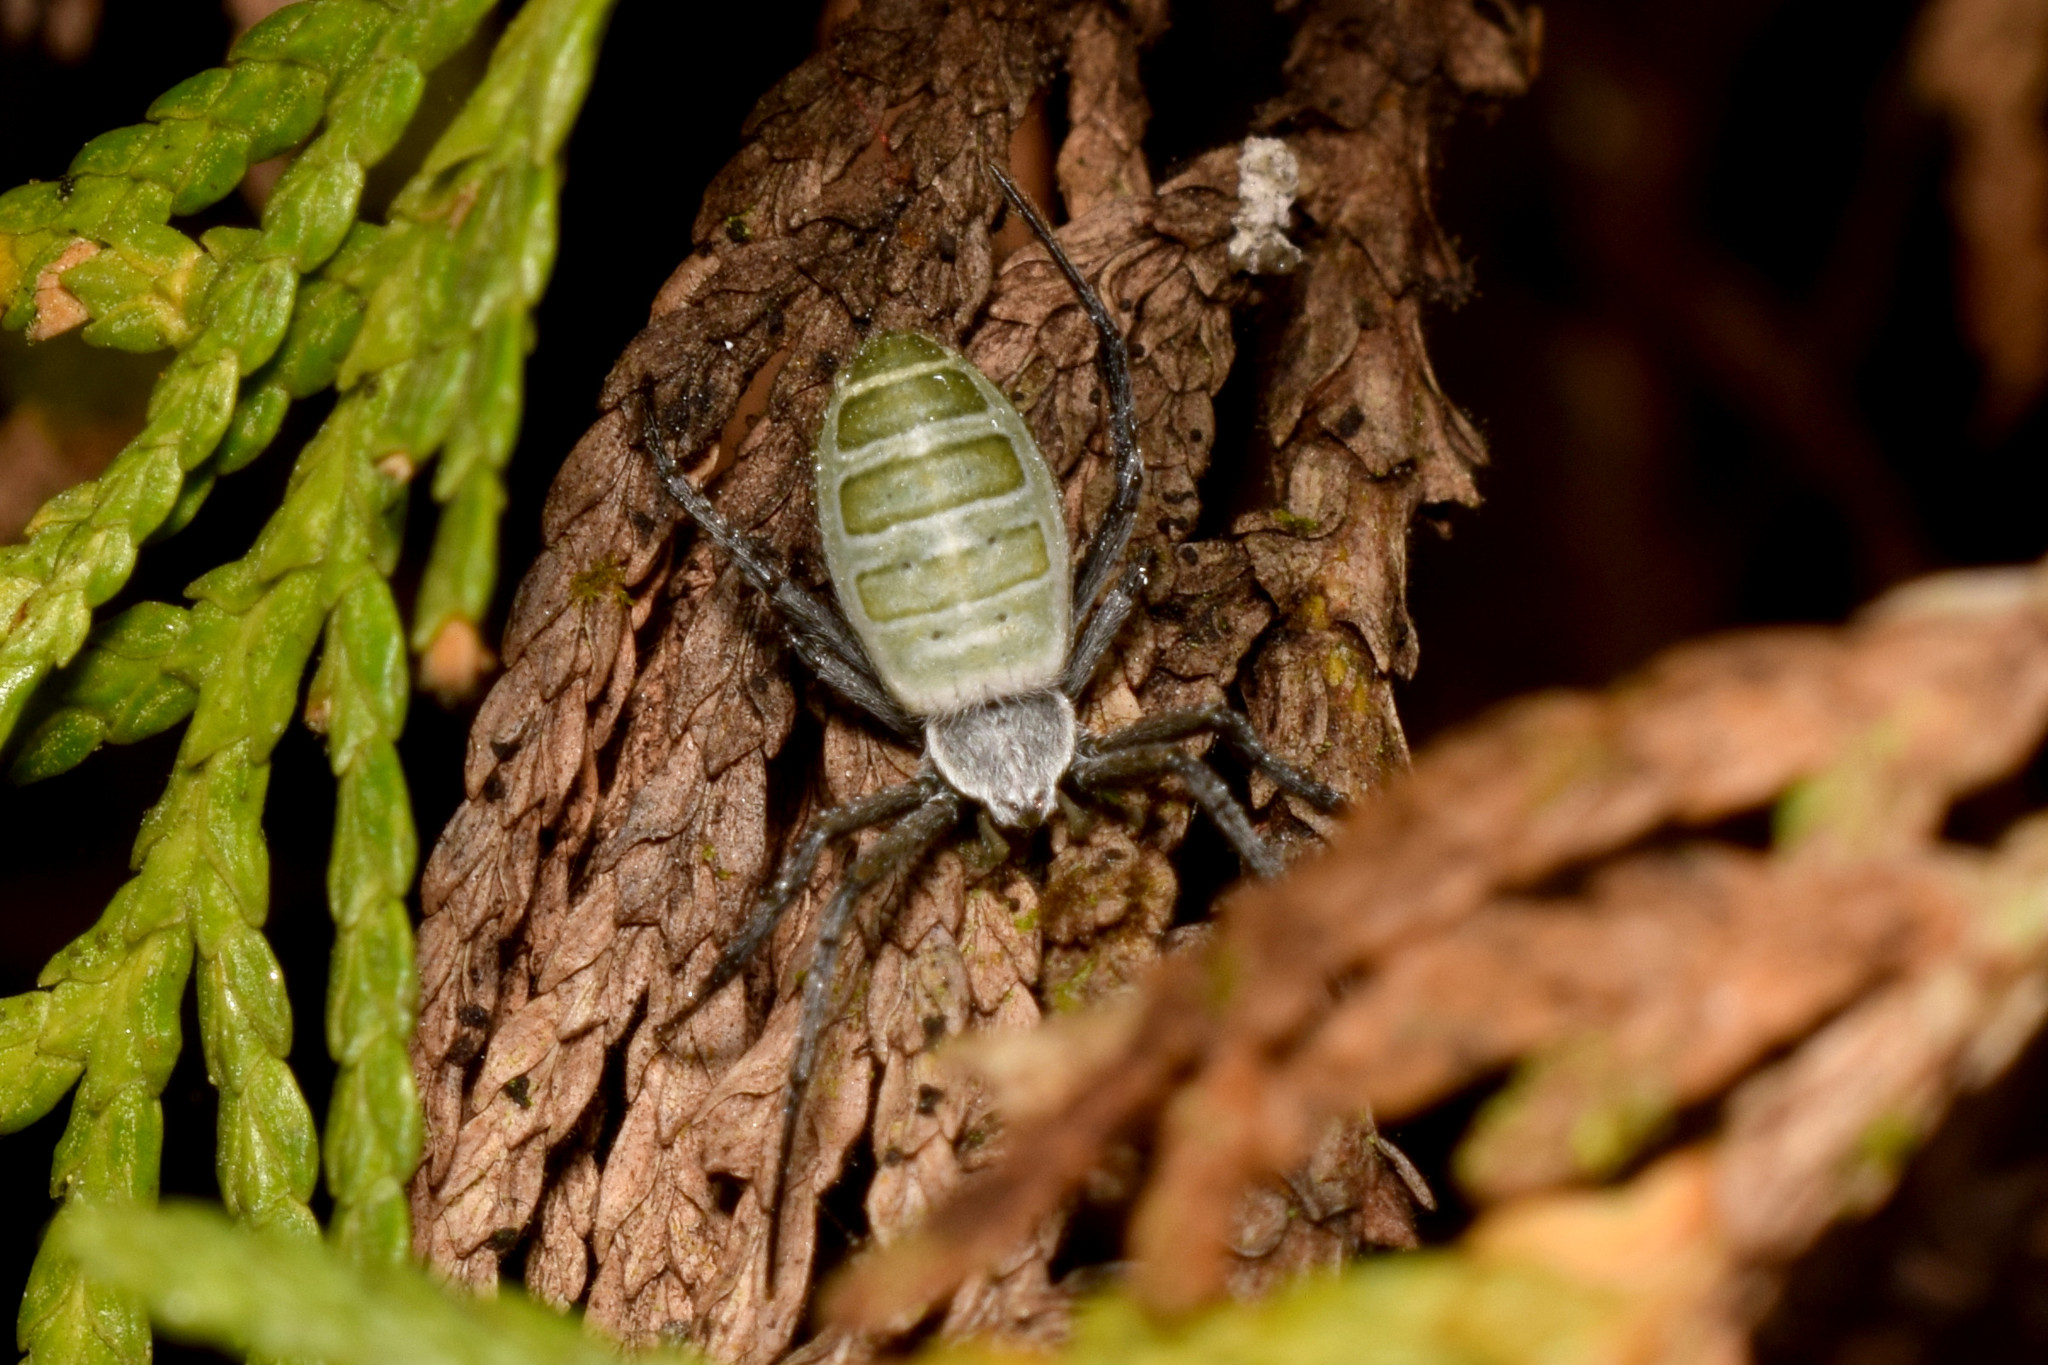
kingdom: Animalia
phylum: Arthropoda
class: Arachnida
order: Araneae
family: Araneidae
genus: Argiope
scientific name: Argiope chloreides
